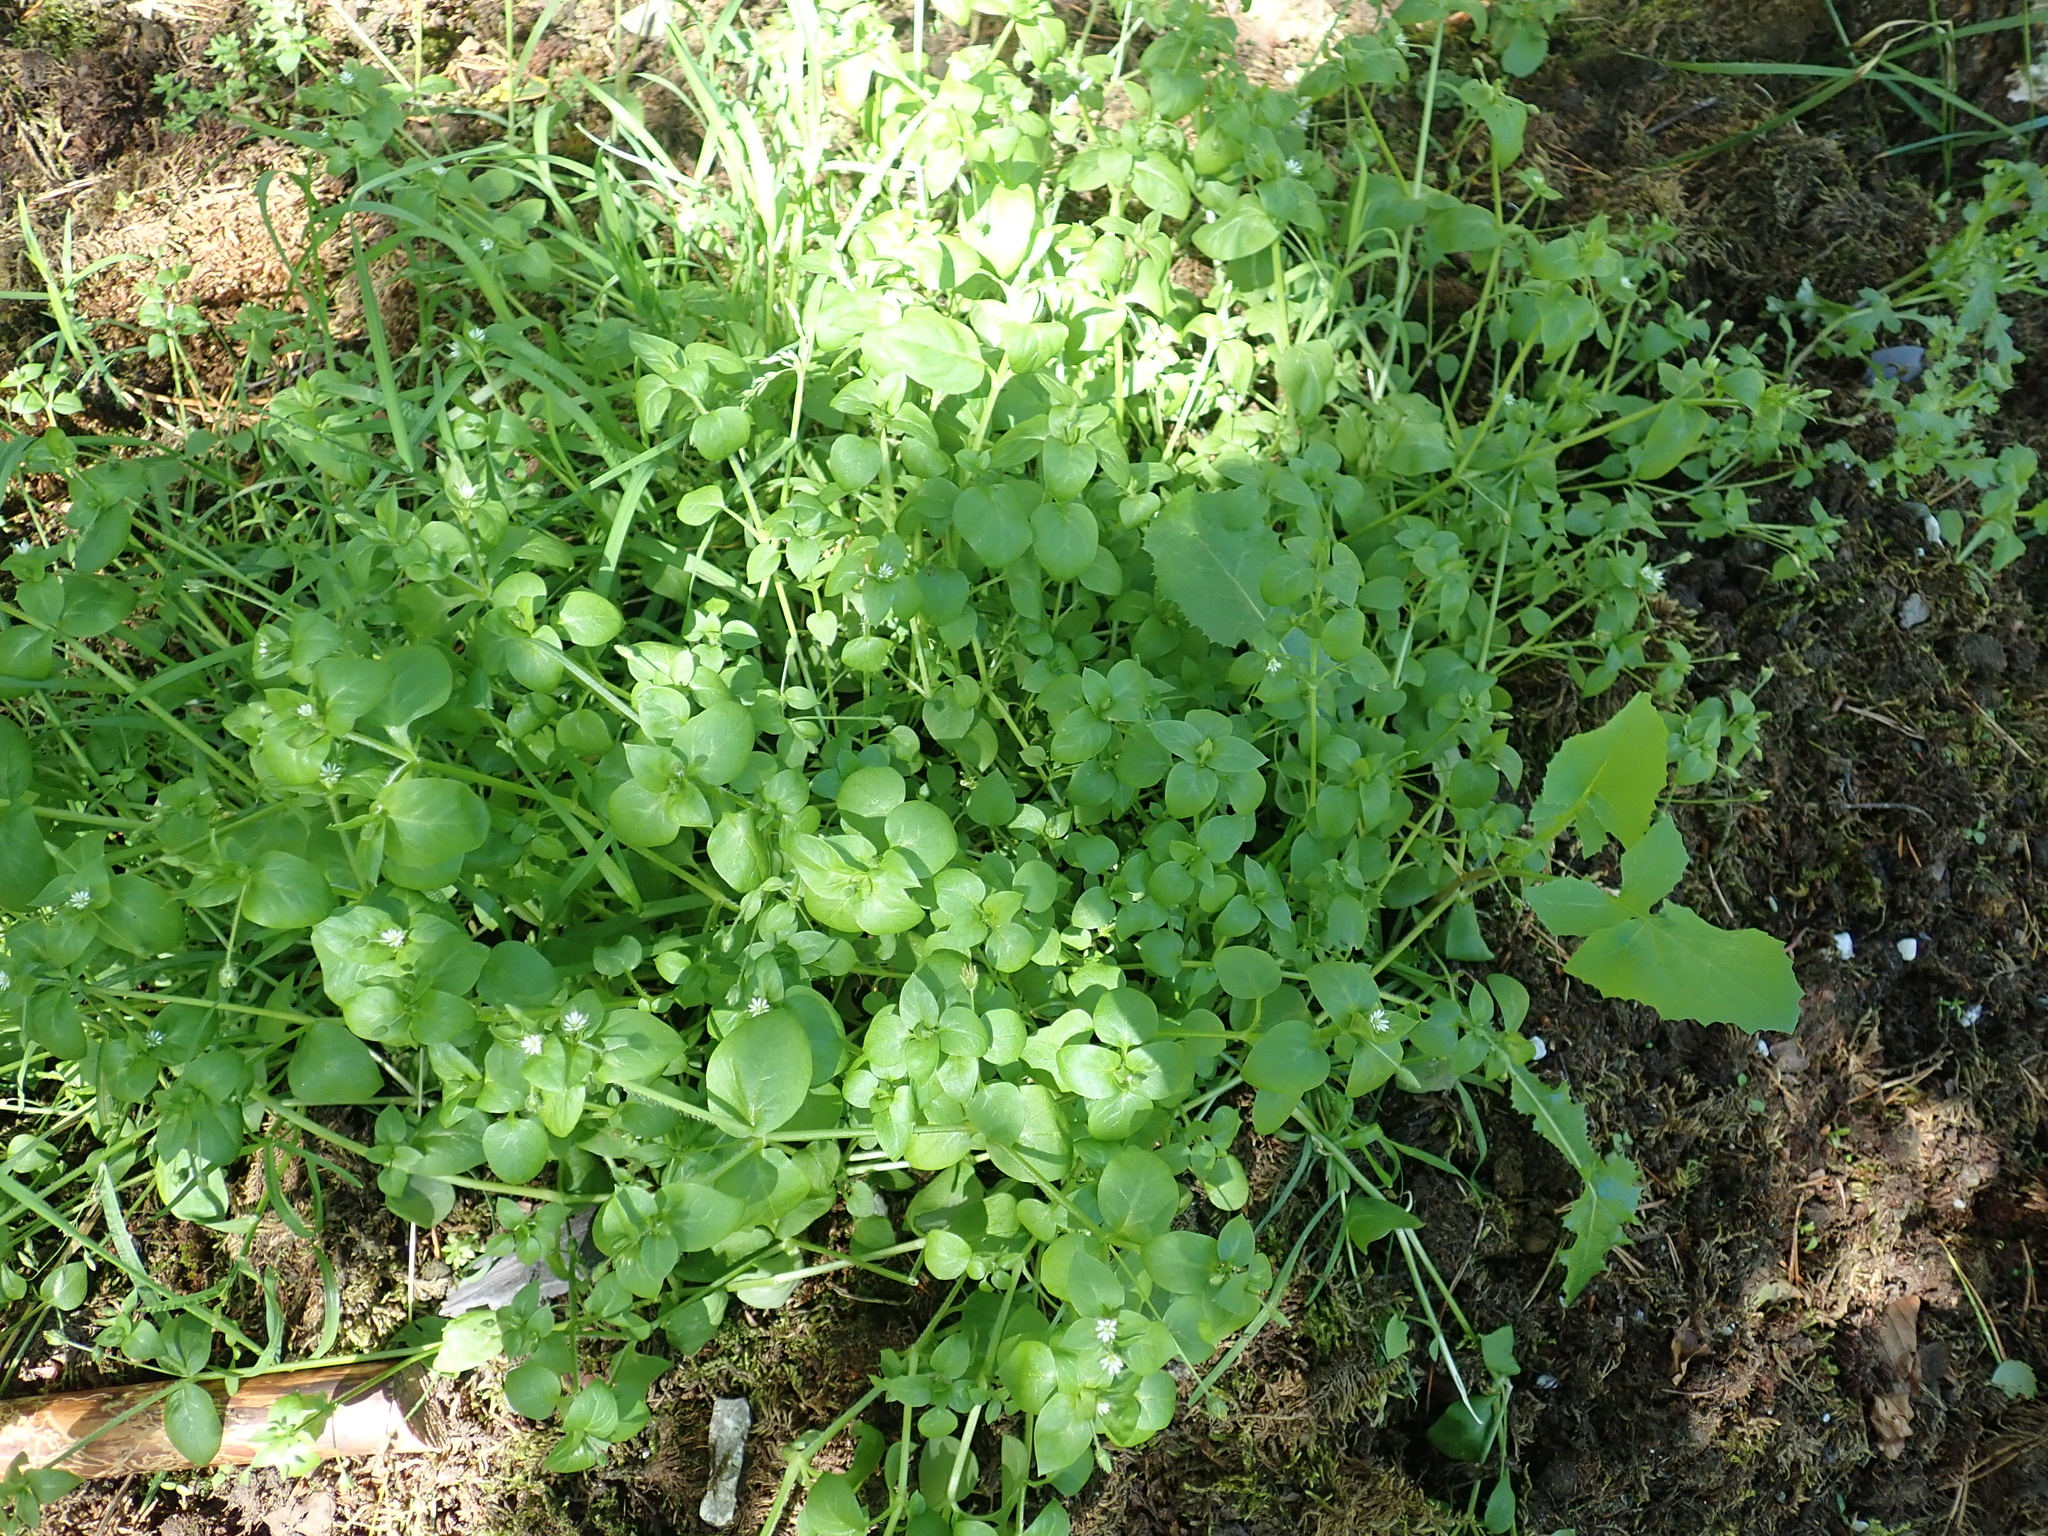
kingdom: Plantae
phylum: Tracheophyta
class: Magnoliopsida
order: Caryophyllales
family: Caryophyllaceae
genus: Stellaria
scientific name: Stellaria media
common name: Common chickweed
